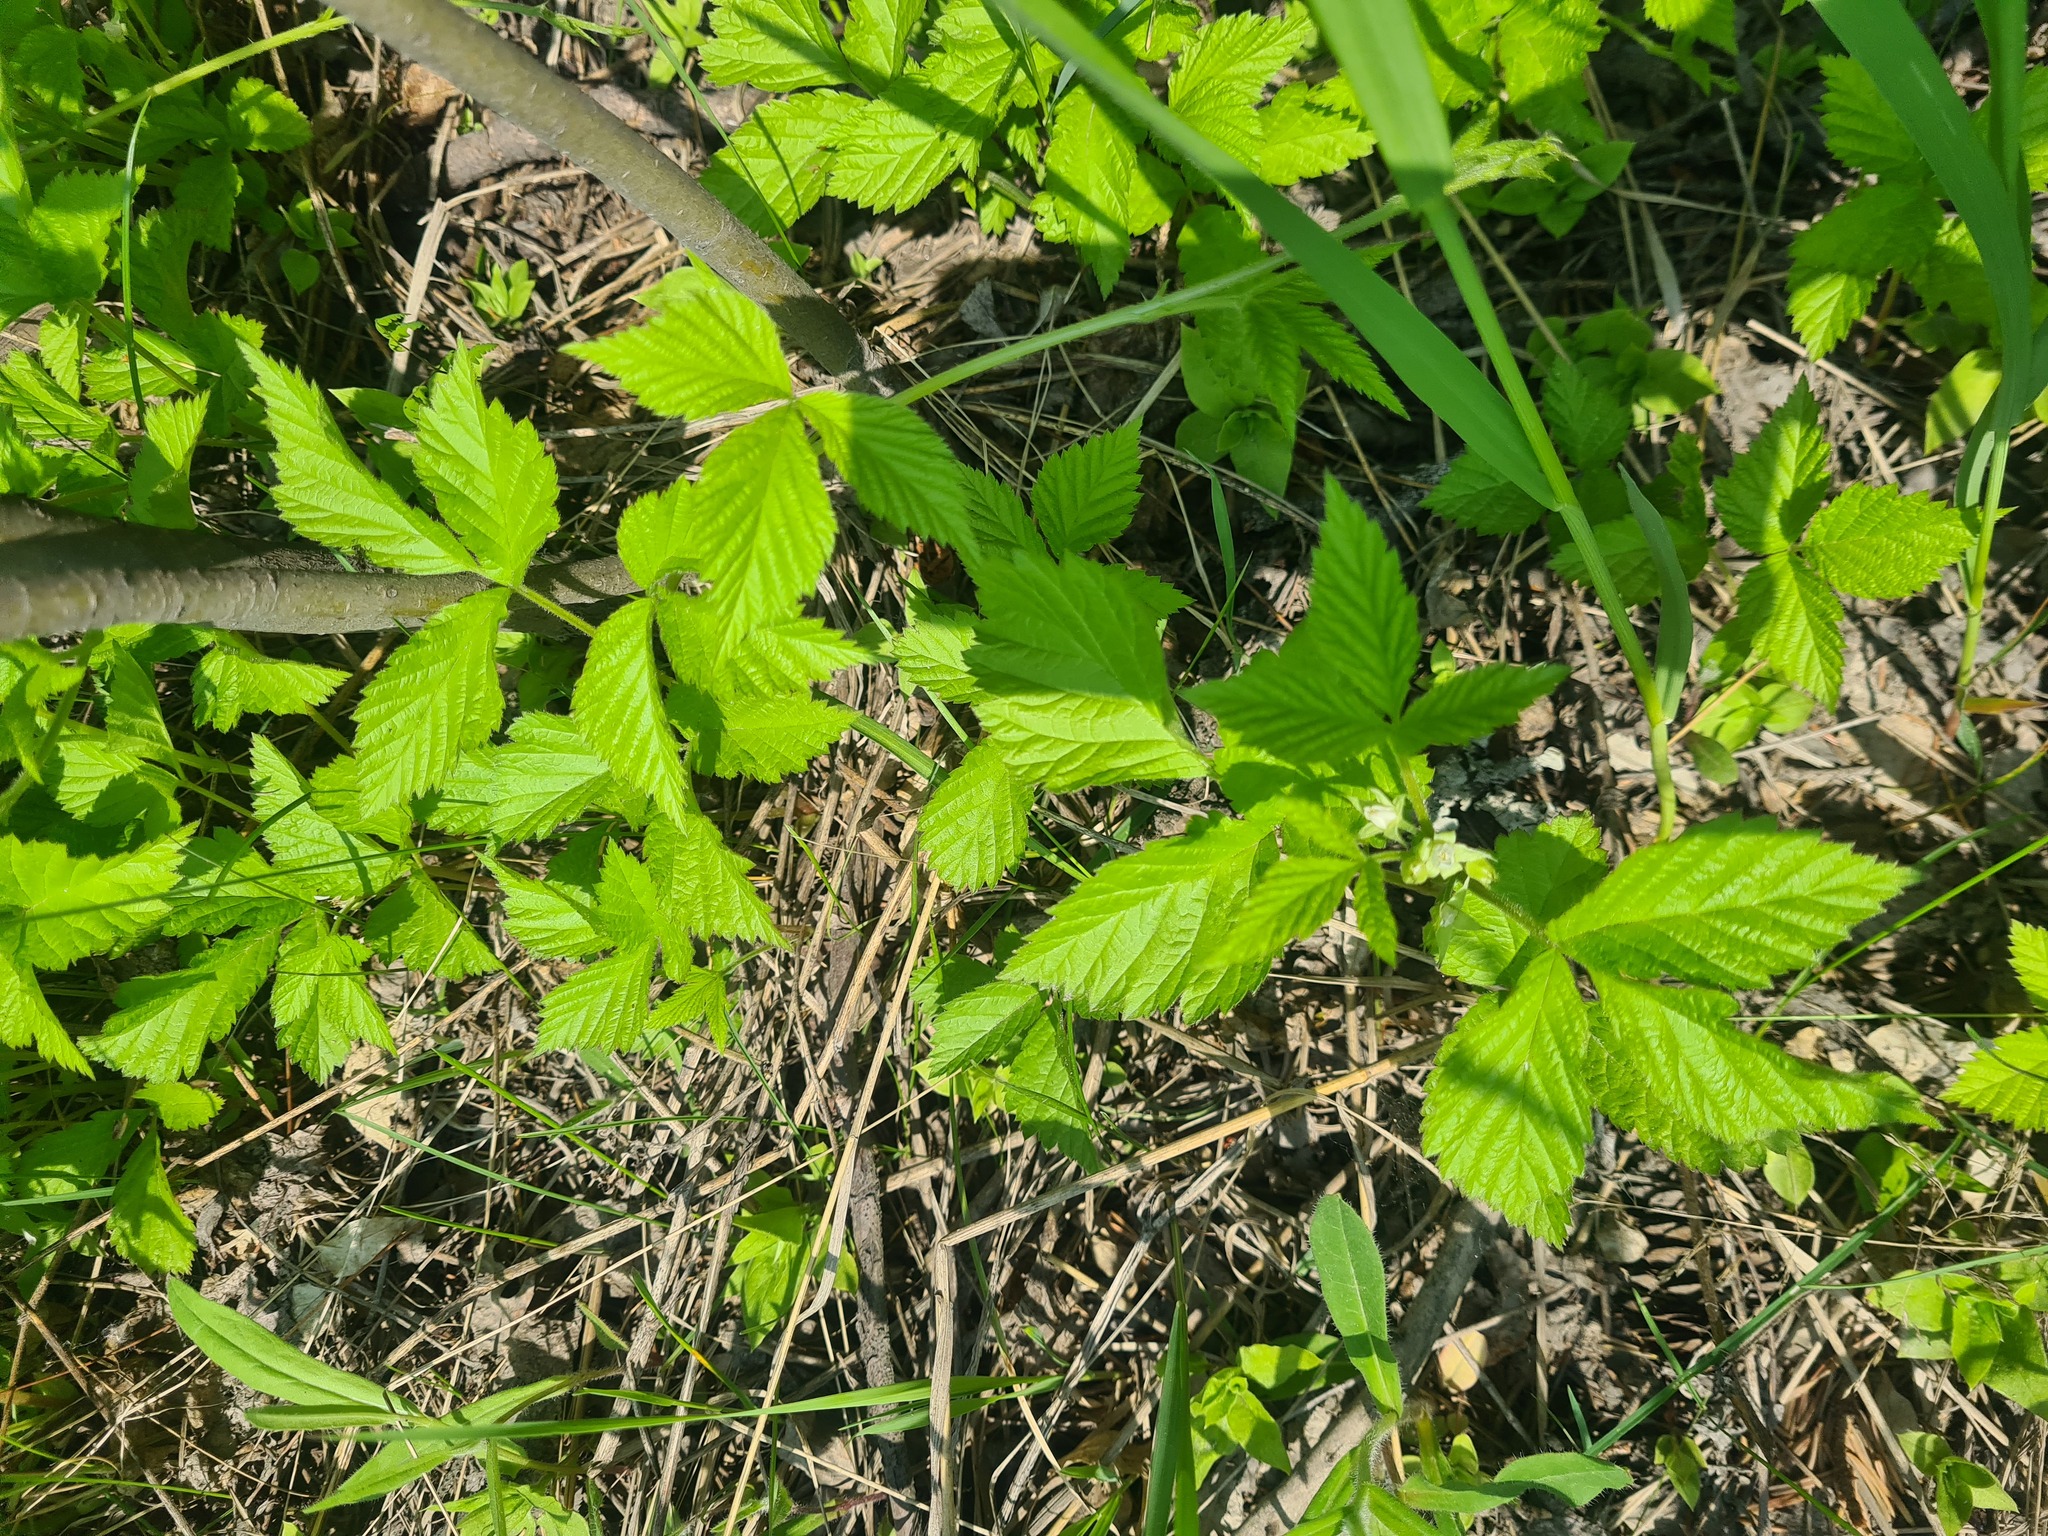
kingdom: Plantae
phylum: Tracheophyta
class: Magnoliopsida
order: Rosales
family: Rosaceae
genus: Rubus
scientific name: Rubus saxatilis
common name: Stone bramble
